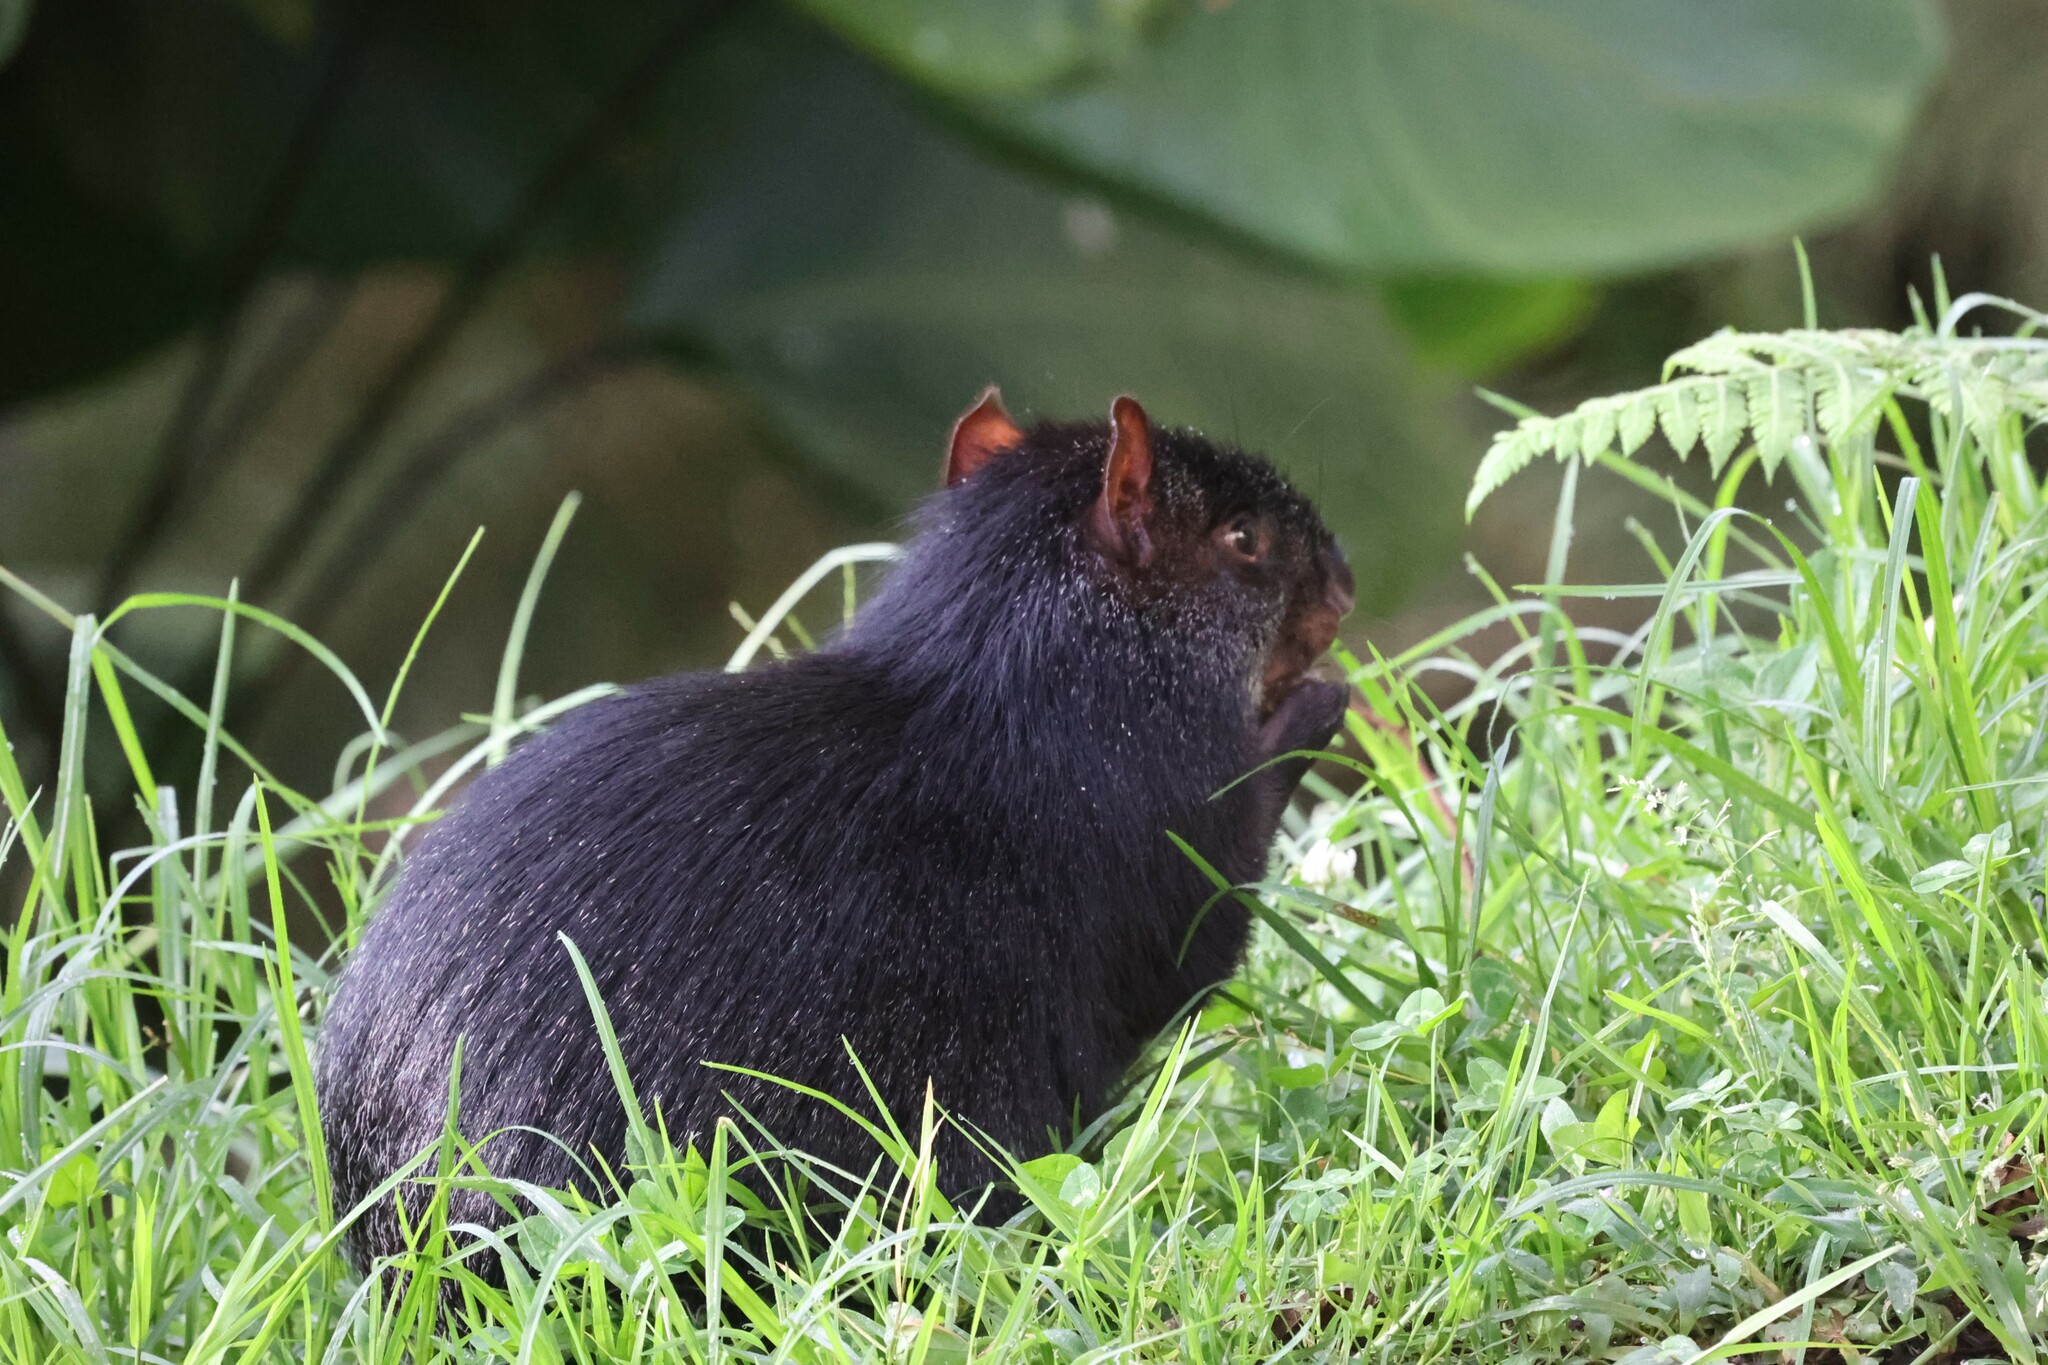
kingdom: Animalia
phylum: Chordata
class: Mammalia
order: Rodentia
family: Dasyproctidae
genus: Dasyprocta
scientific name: Dasyprocta fuliginosa
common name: Black agouti
